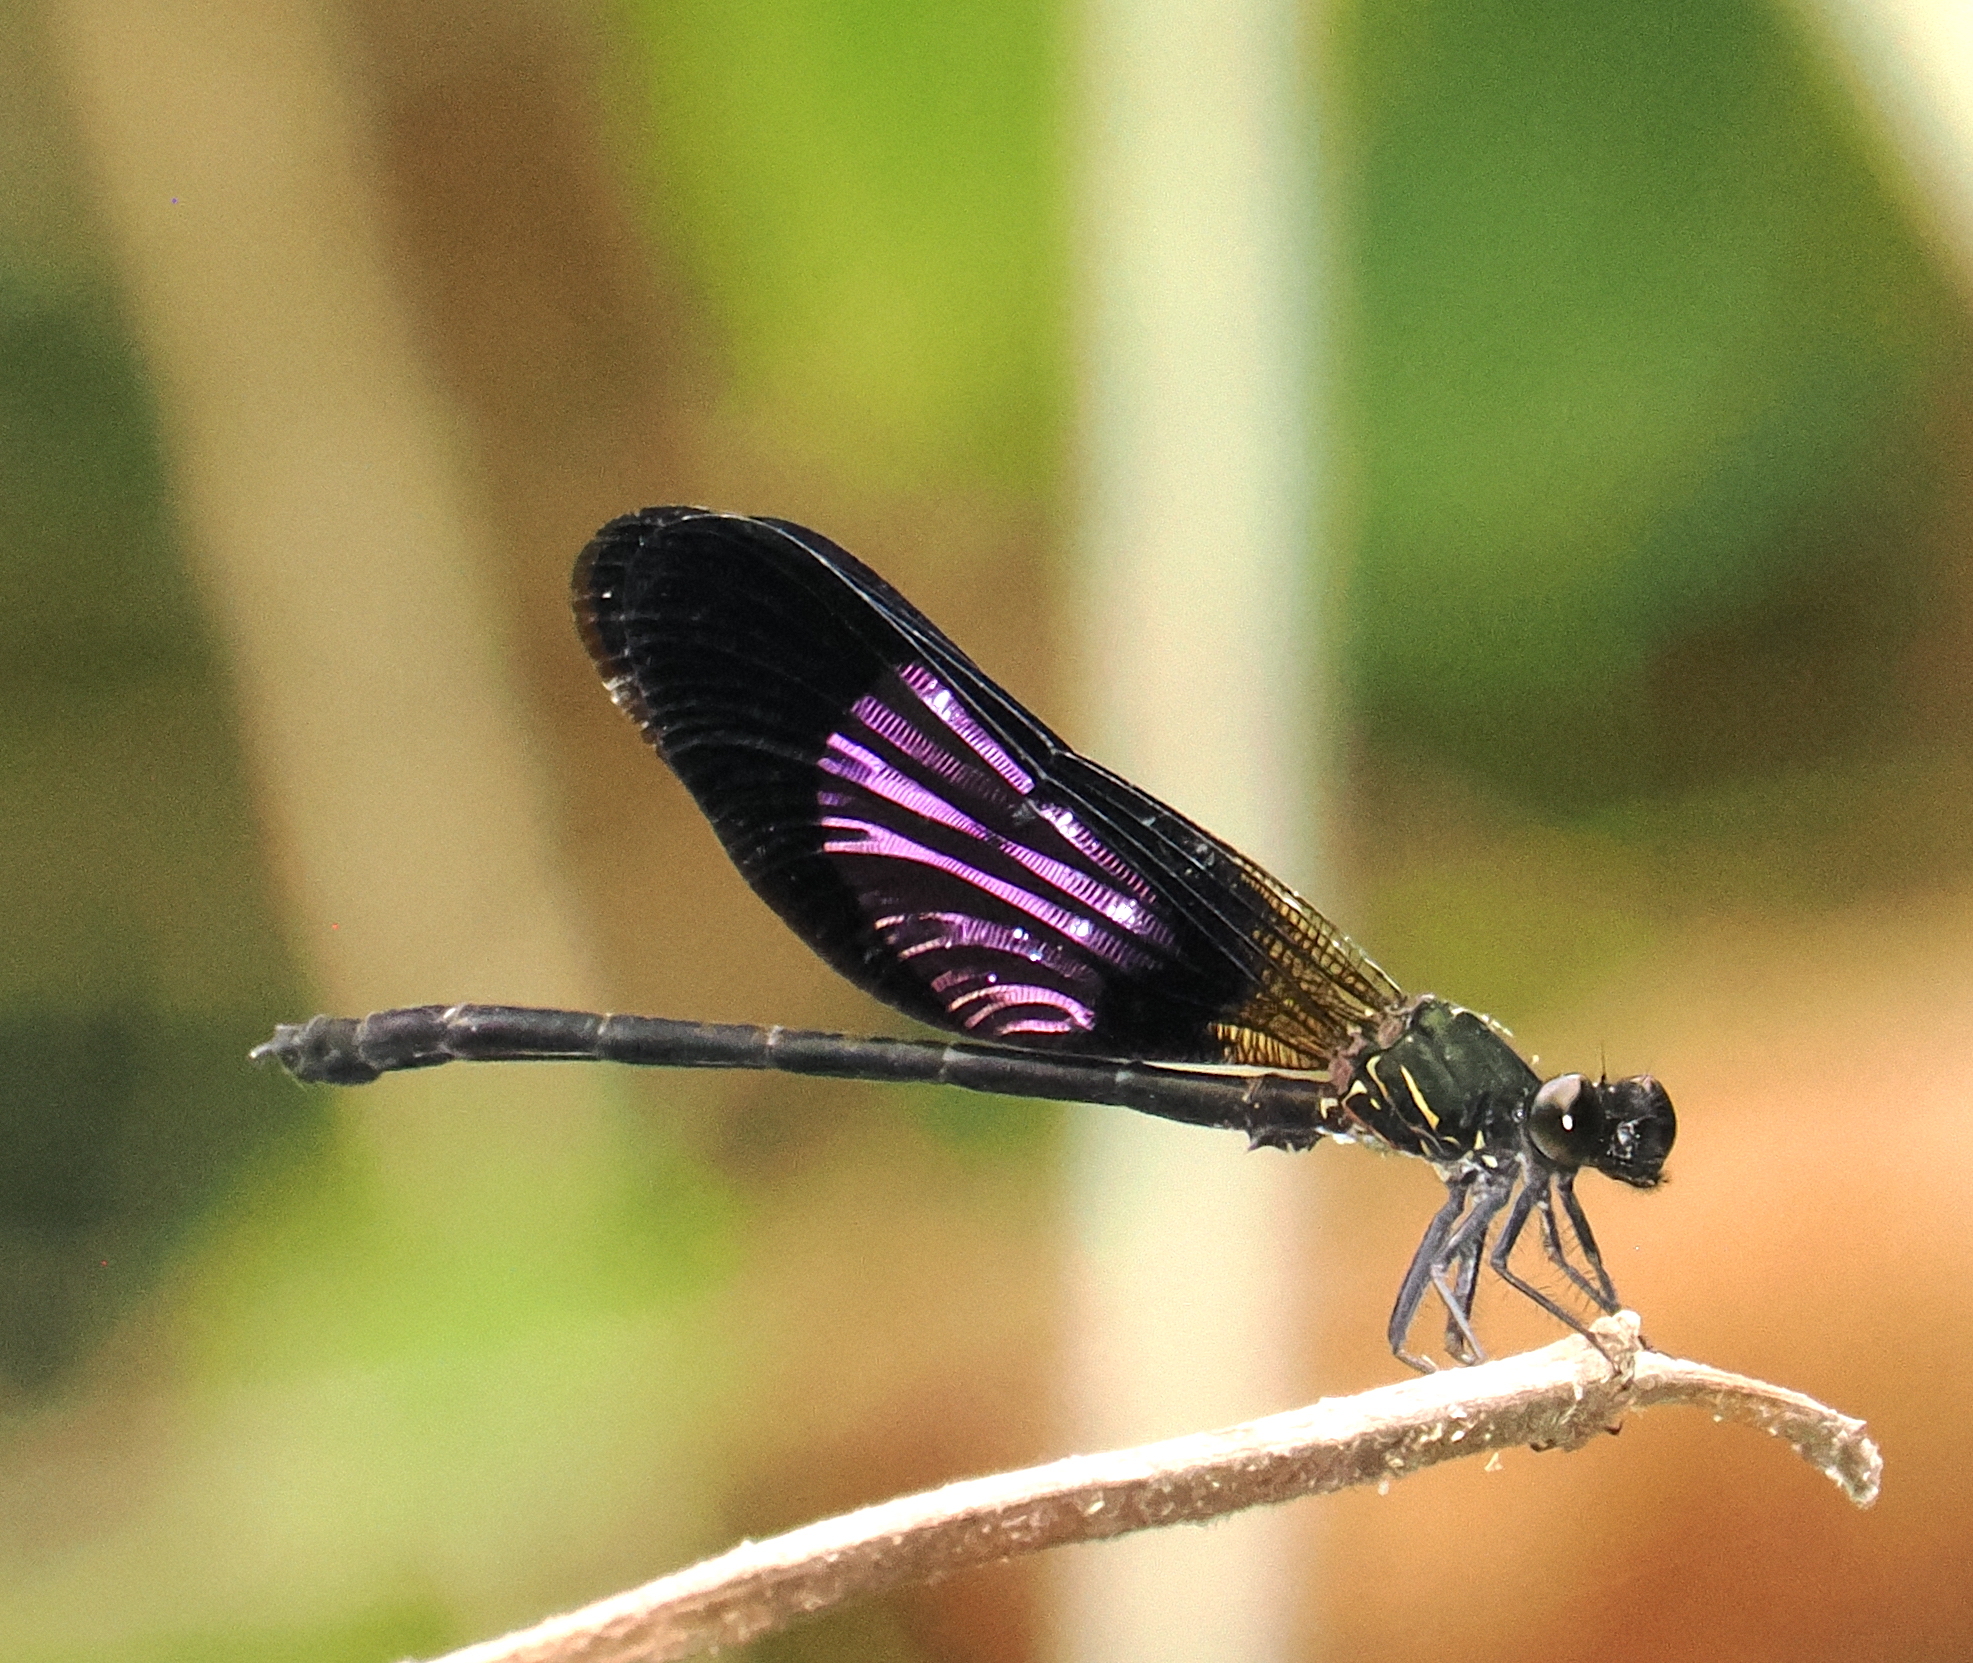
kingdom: Animalia
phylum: Arthropoda
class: Insecta
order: Odonata
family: Euphaeidae
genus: Euphaea
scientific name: Euphaea variegata
